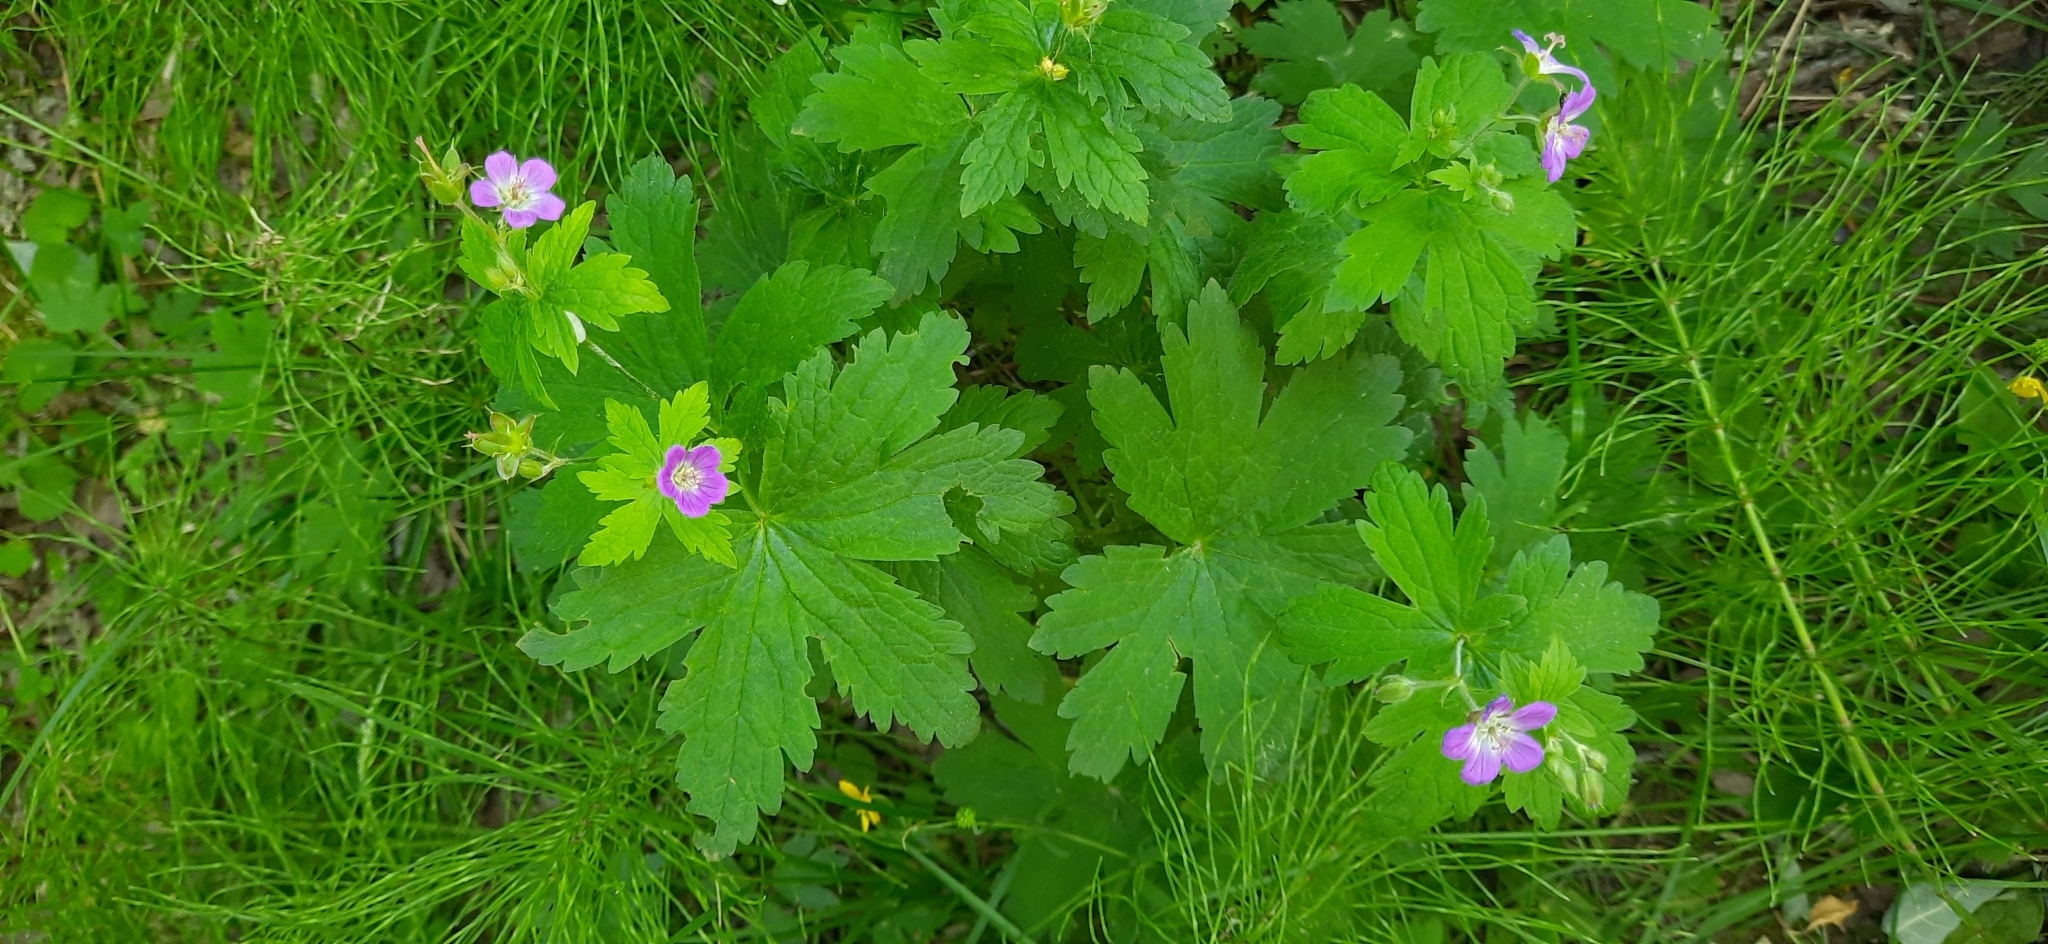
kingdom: Plantae
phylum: Tracheophyta
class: Magnoliopsida
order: Geraniales
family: Geraniaceae
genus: Geranium
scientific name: Geranium sylvaticum
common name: Wood crane's-bill
